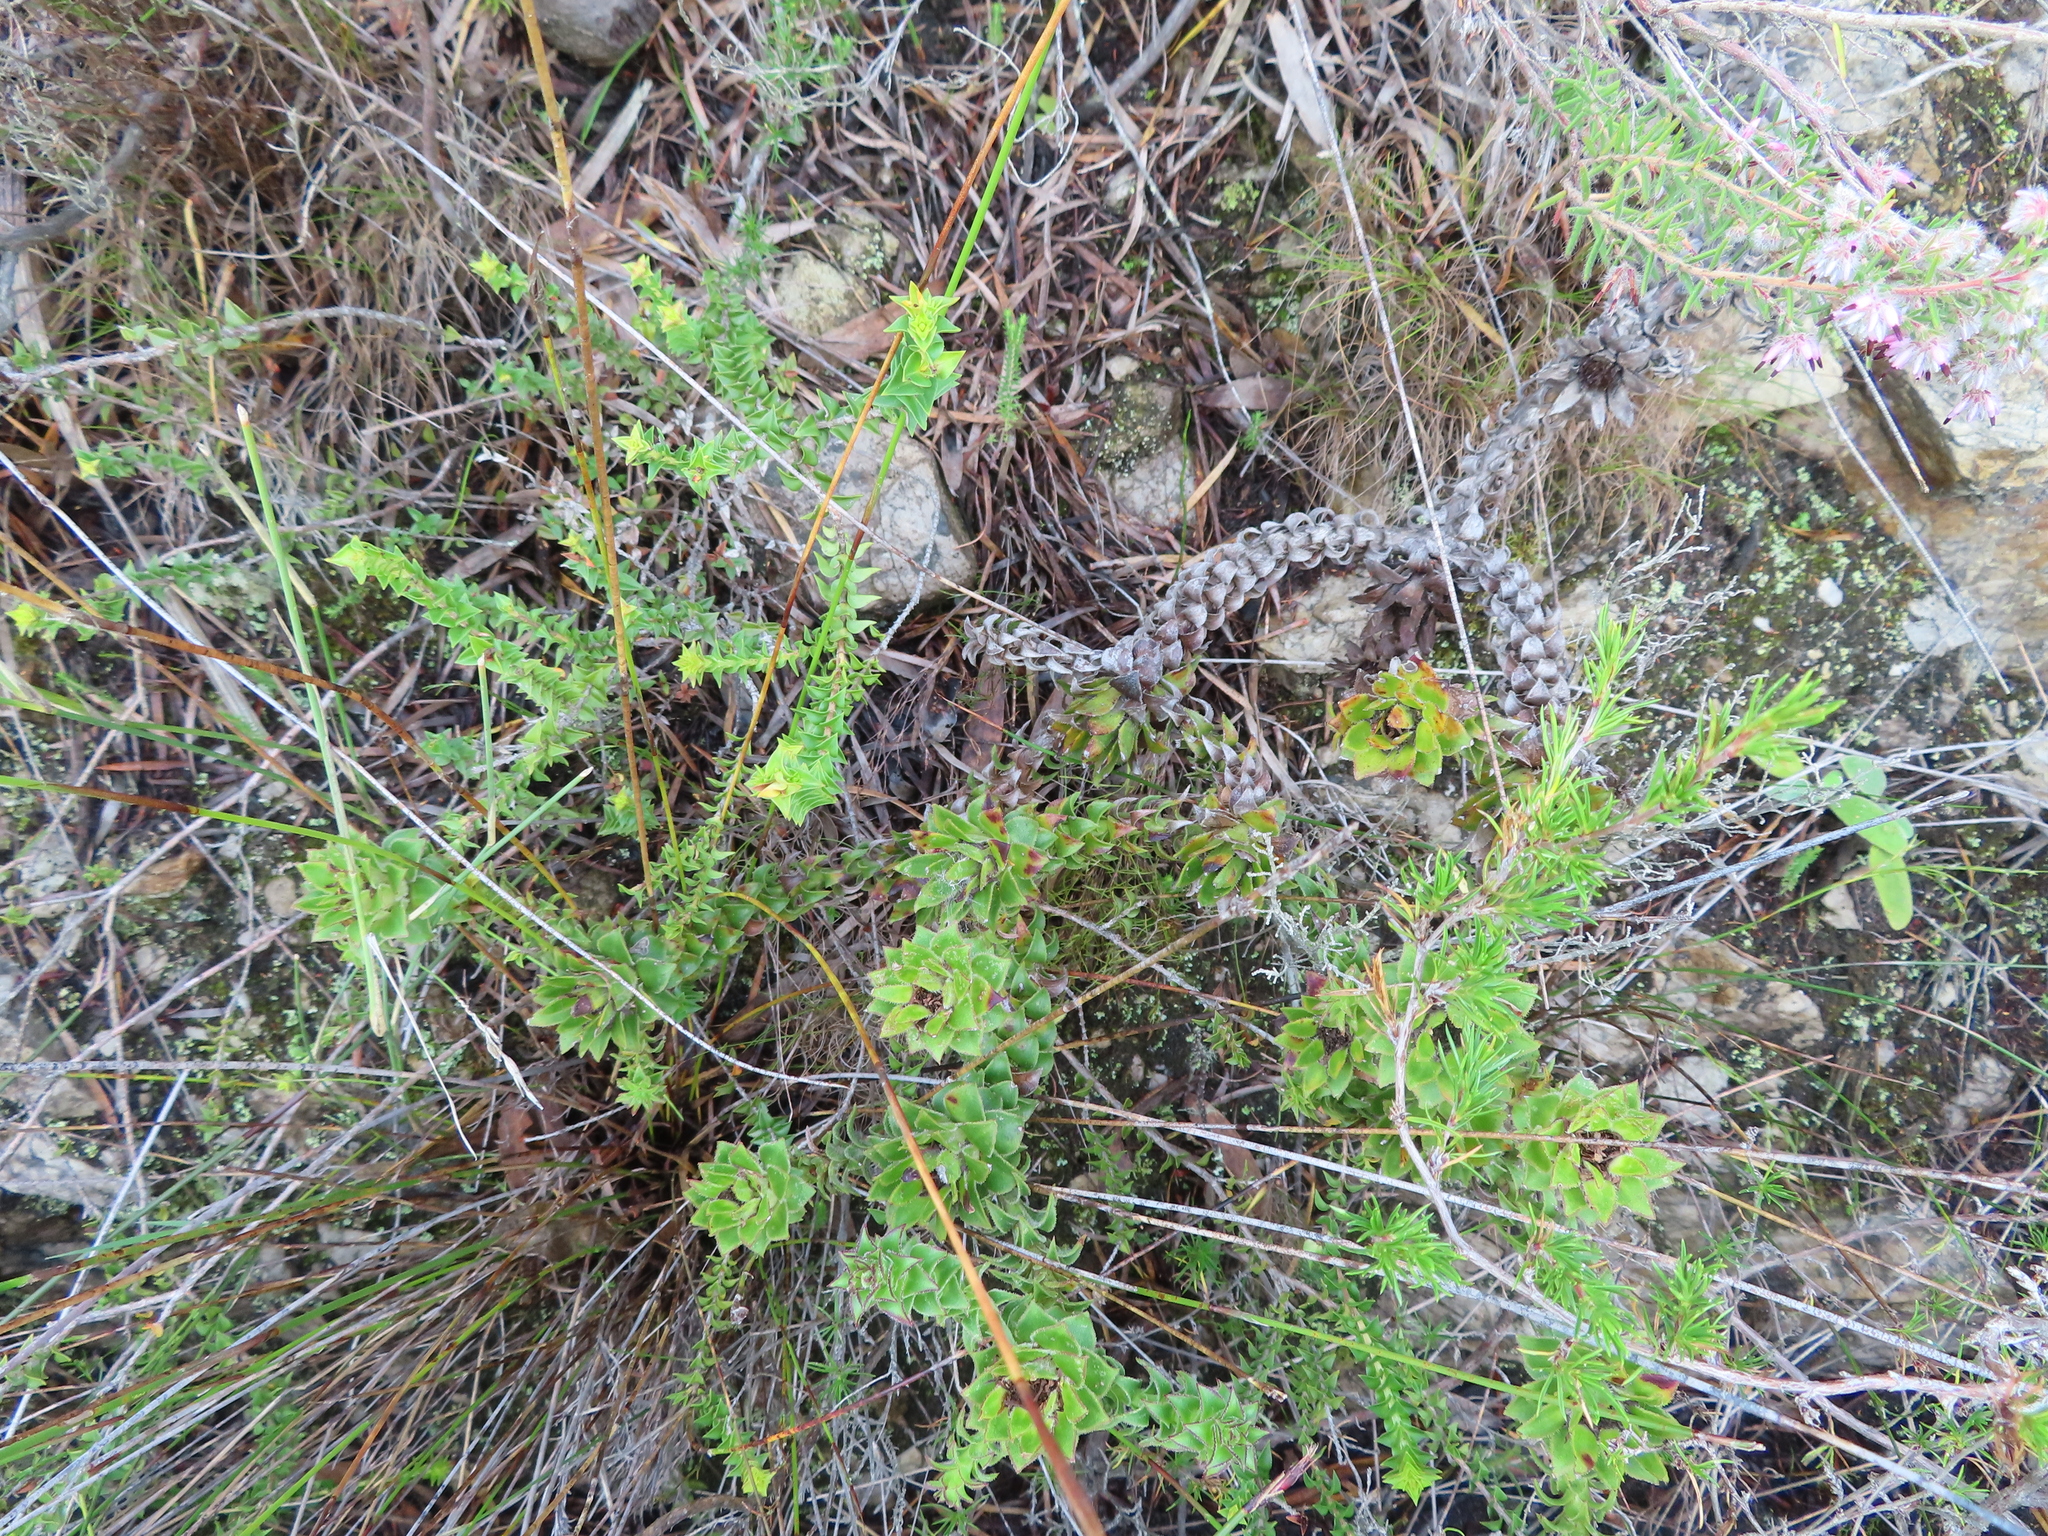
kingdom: Plantae
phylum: Tracheophyta
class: Magnoliopsida
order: Asterales
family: Asteraceae
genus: Oedera
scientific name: Oedera imbricata
